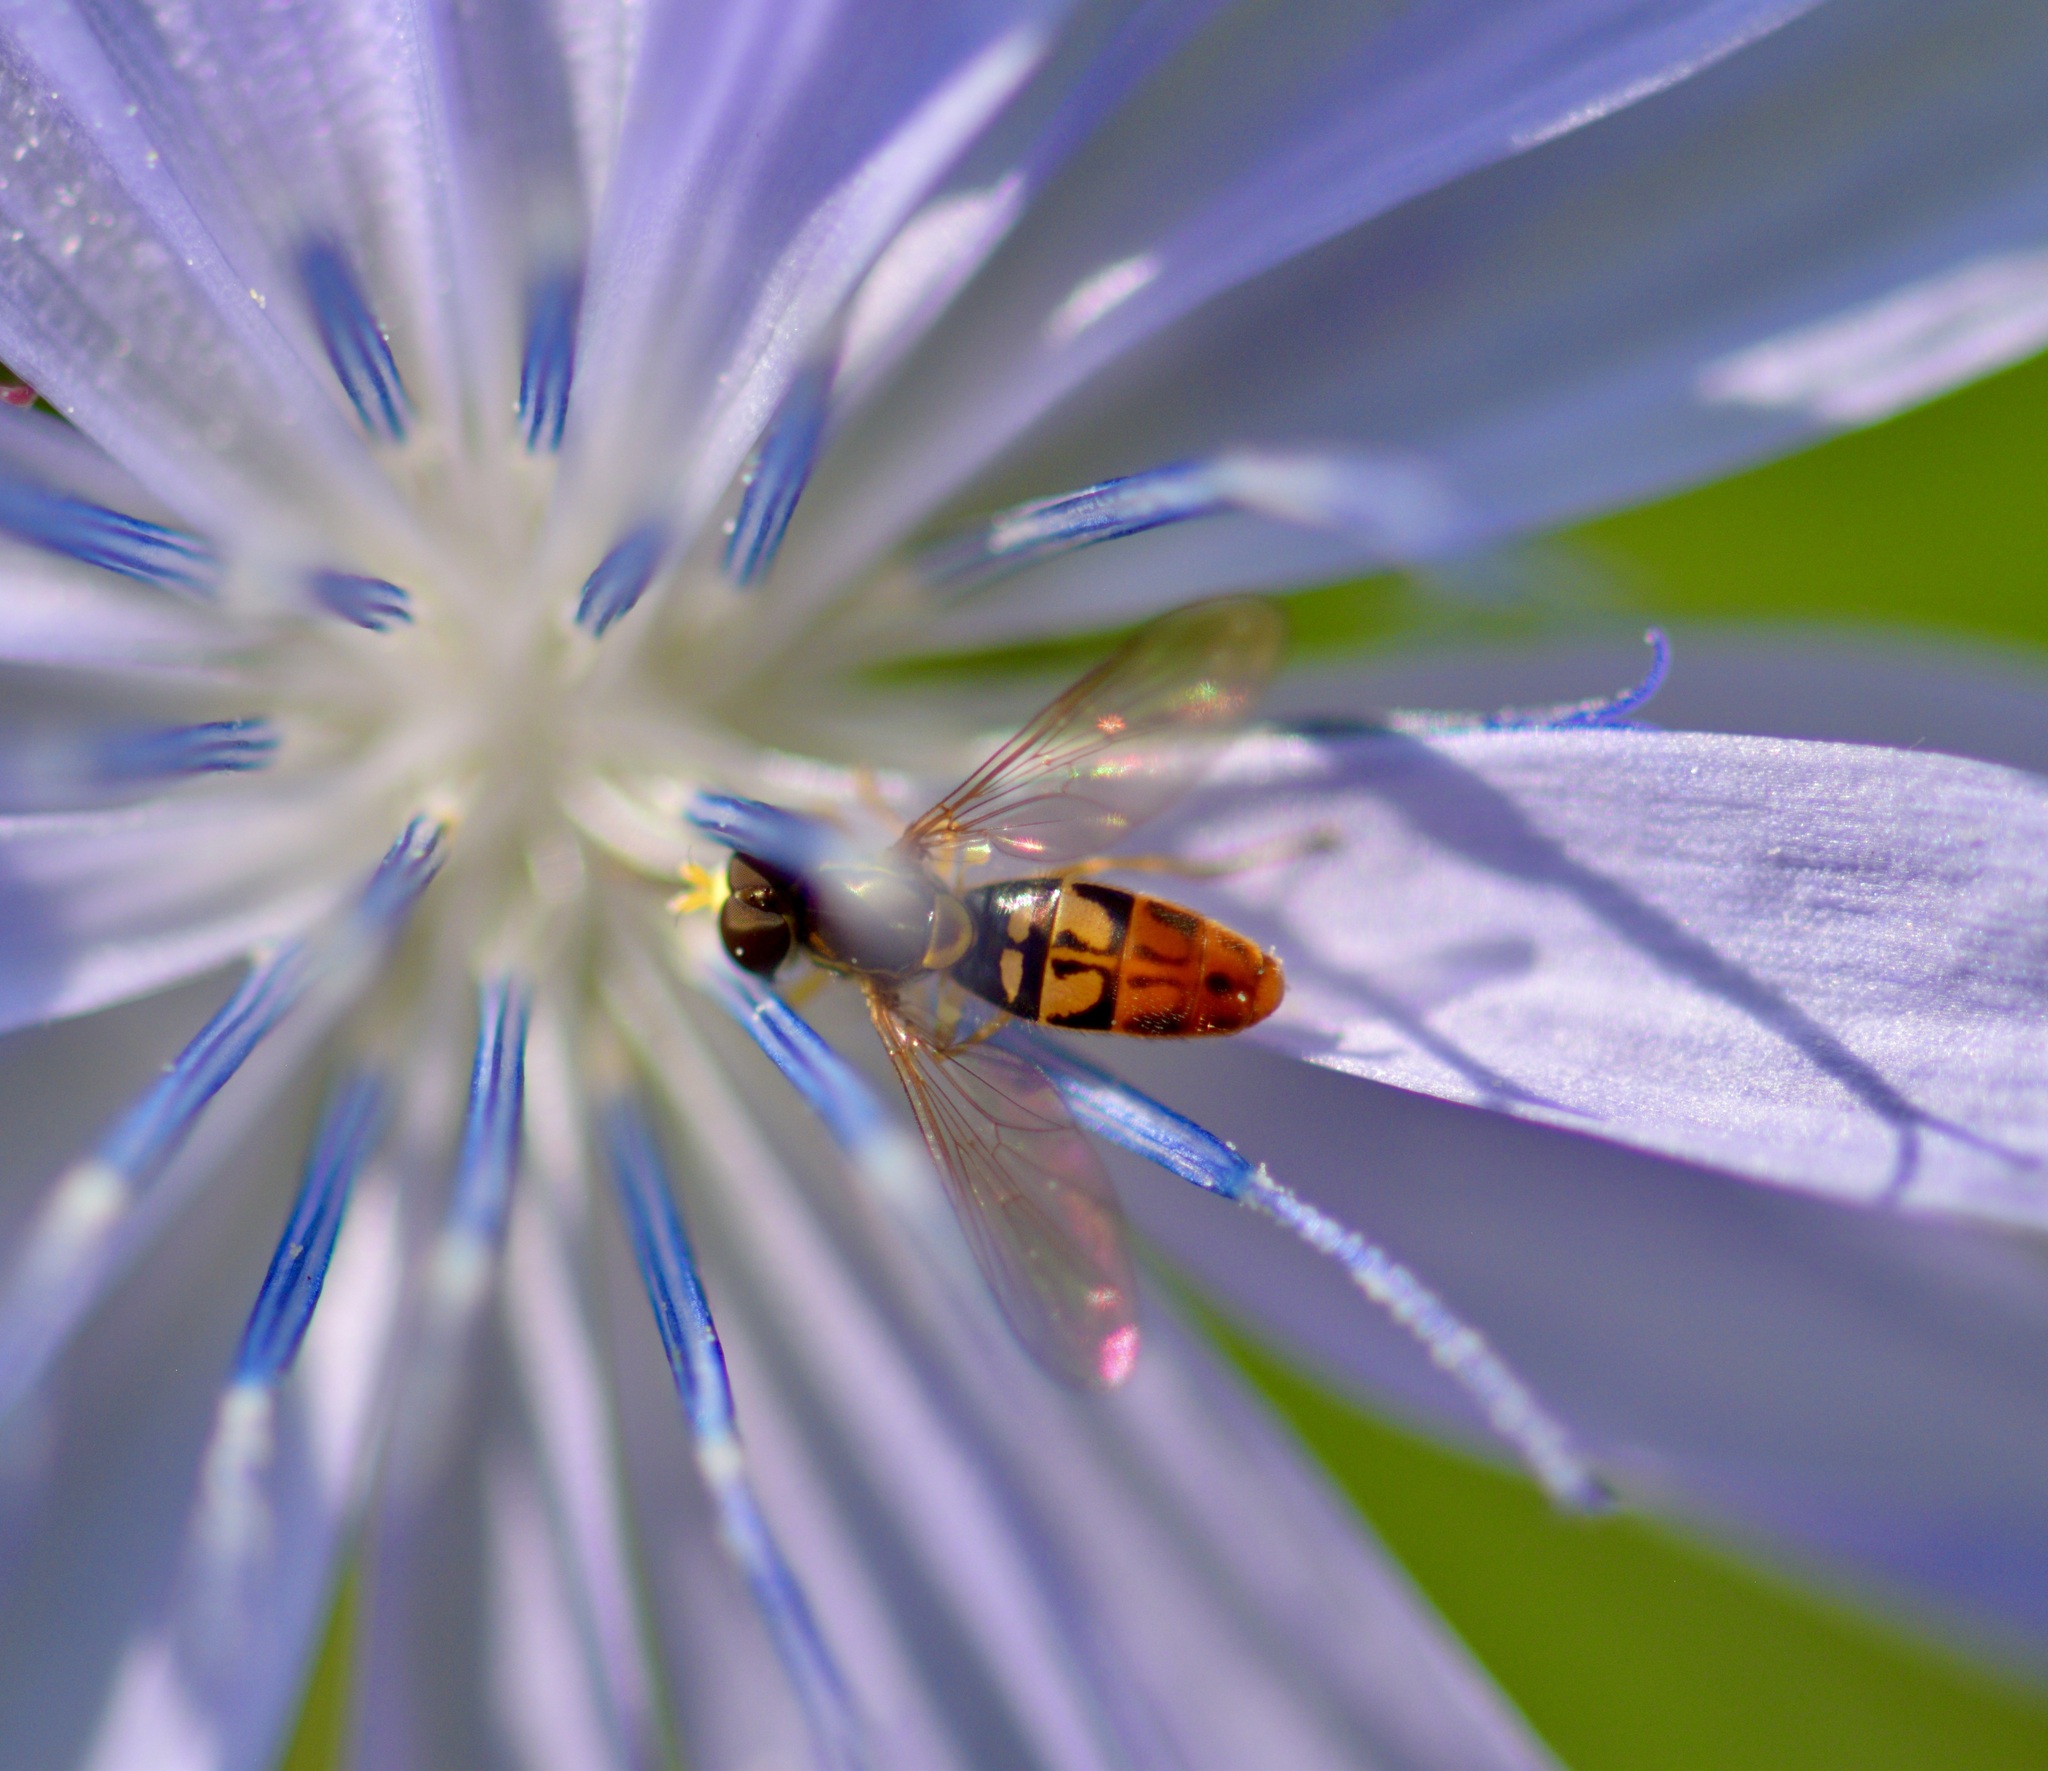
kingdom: Animalia
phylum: Arthropoda
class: Insecta
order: Diptera
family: Syrphidae
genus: Toxomerus
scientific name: Toxomerus marginatus
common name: Syrphid fly
